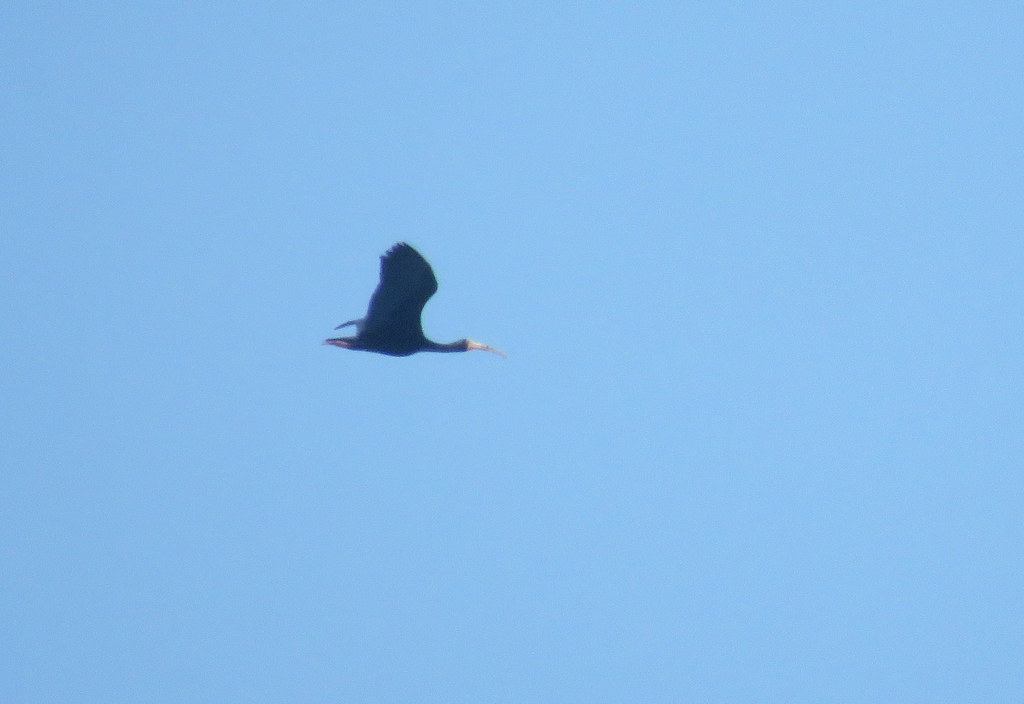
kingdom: Animalia
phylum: Chordata
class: Aves
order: Pelecaniformes
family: Threskiornithidae
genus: Phimosus
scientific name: Phimosus infuscatus
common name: Bare-faced ibis
